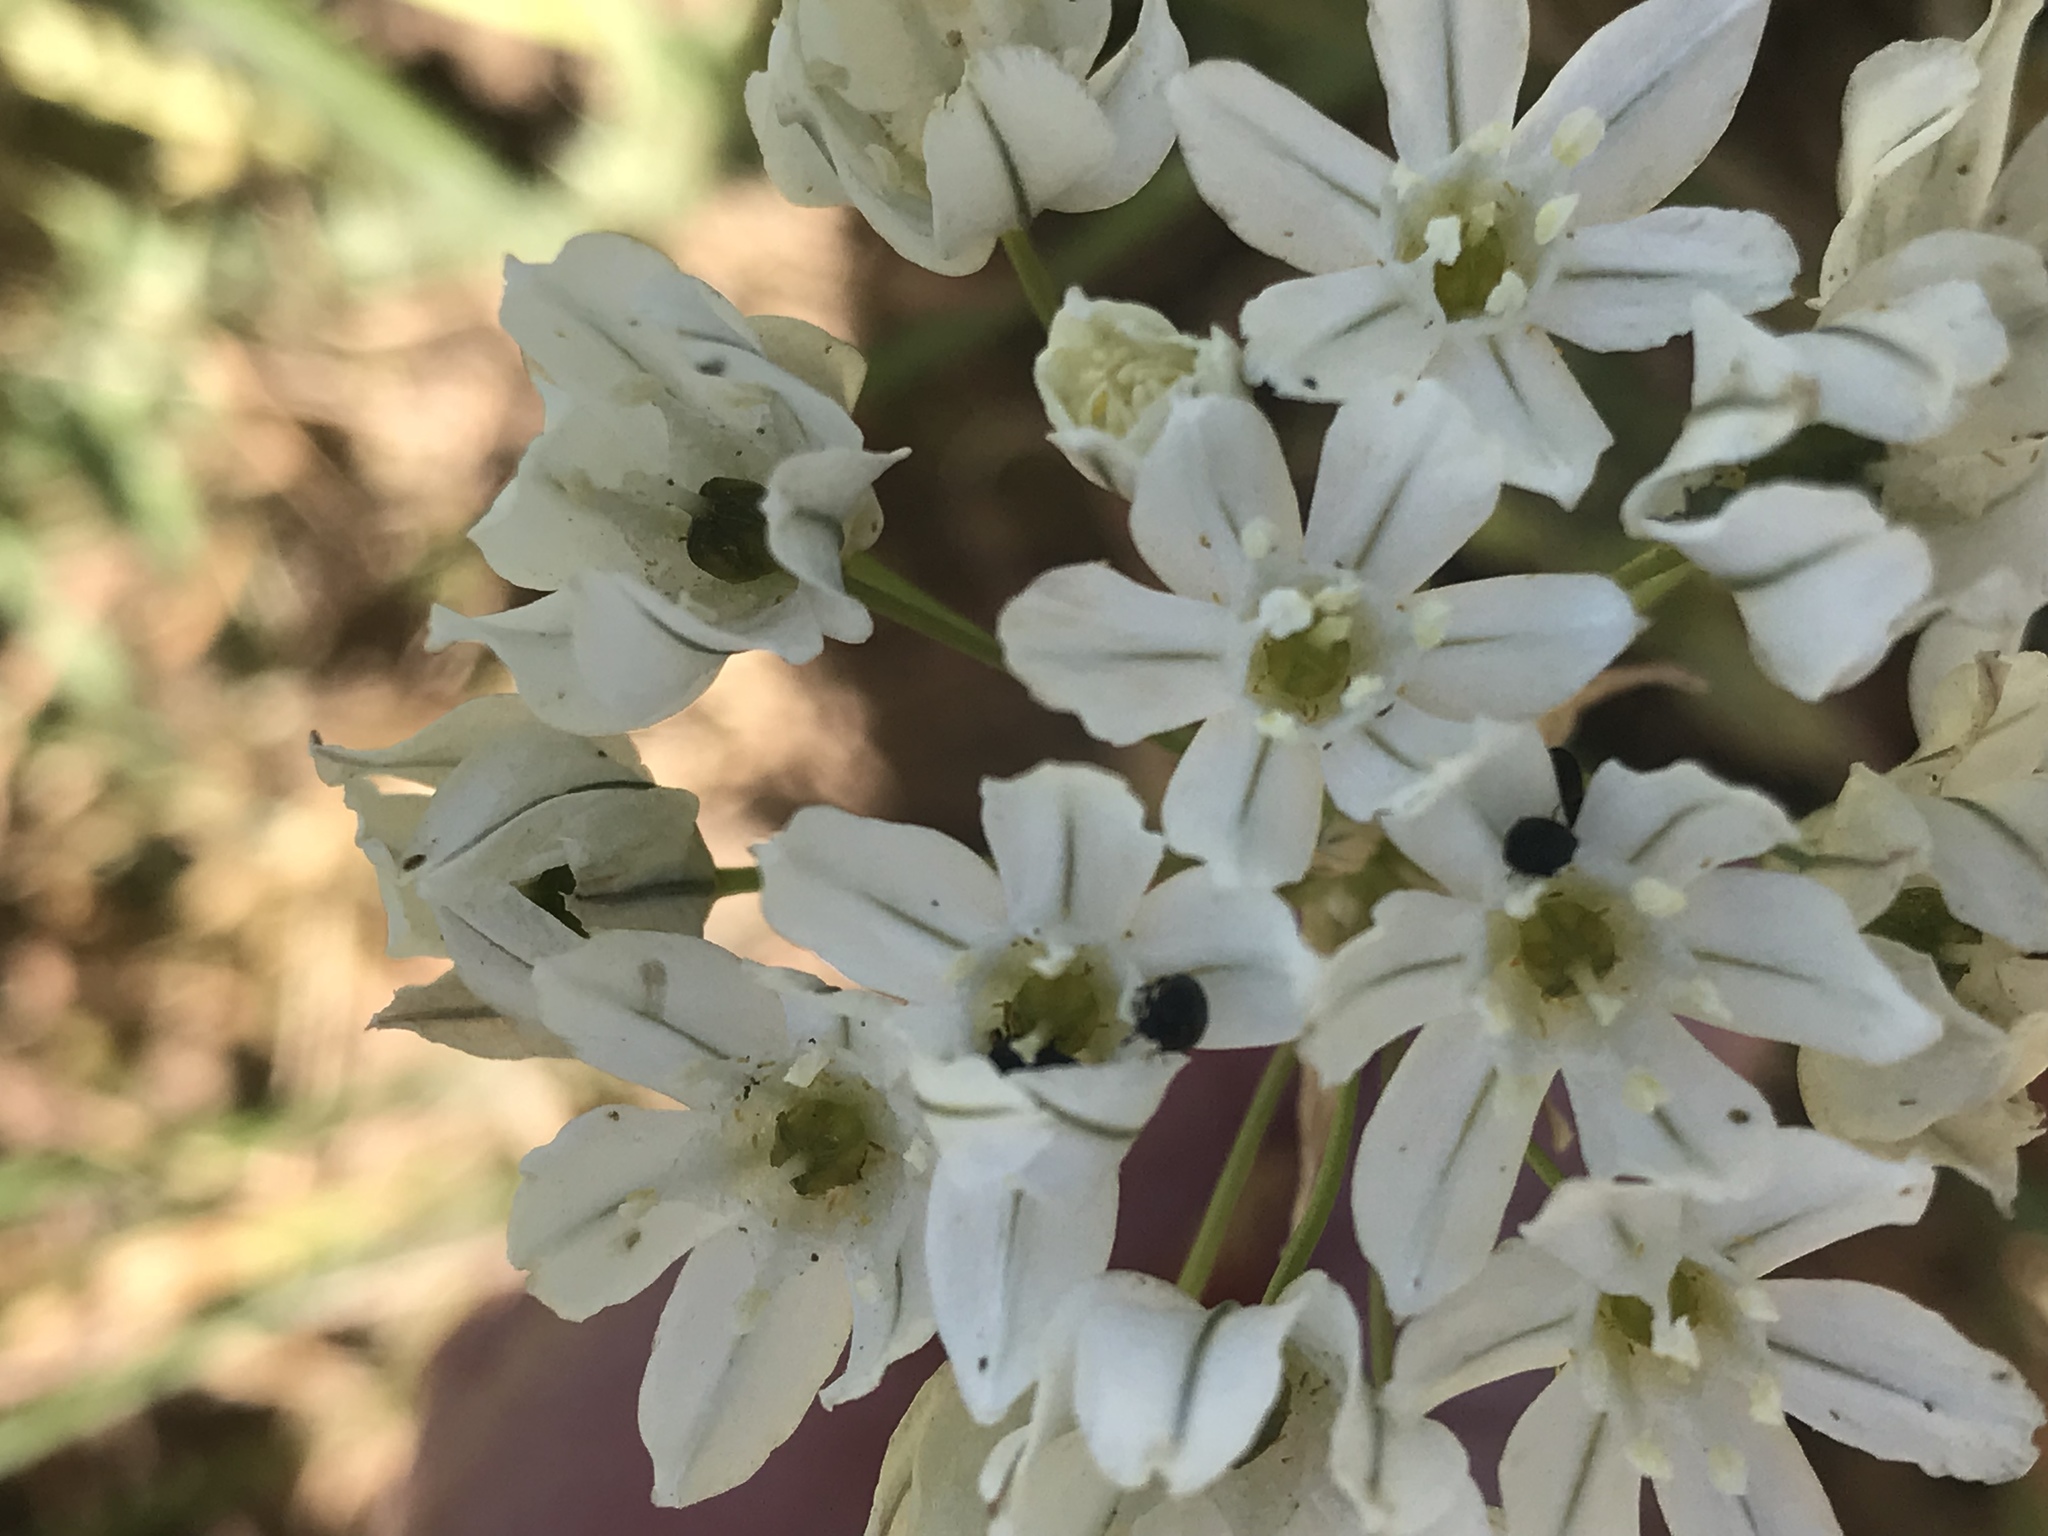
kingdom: Plantae
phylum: Tracheophyta
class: Liliopsida
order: Asparagales
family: Asparagaceae
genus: Triteleia
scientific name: Triteleia hyacinthina
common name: White brodiaea
